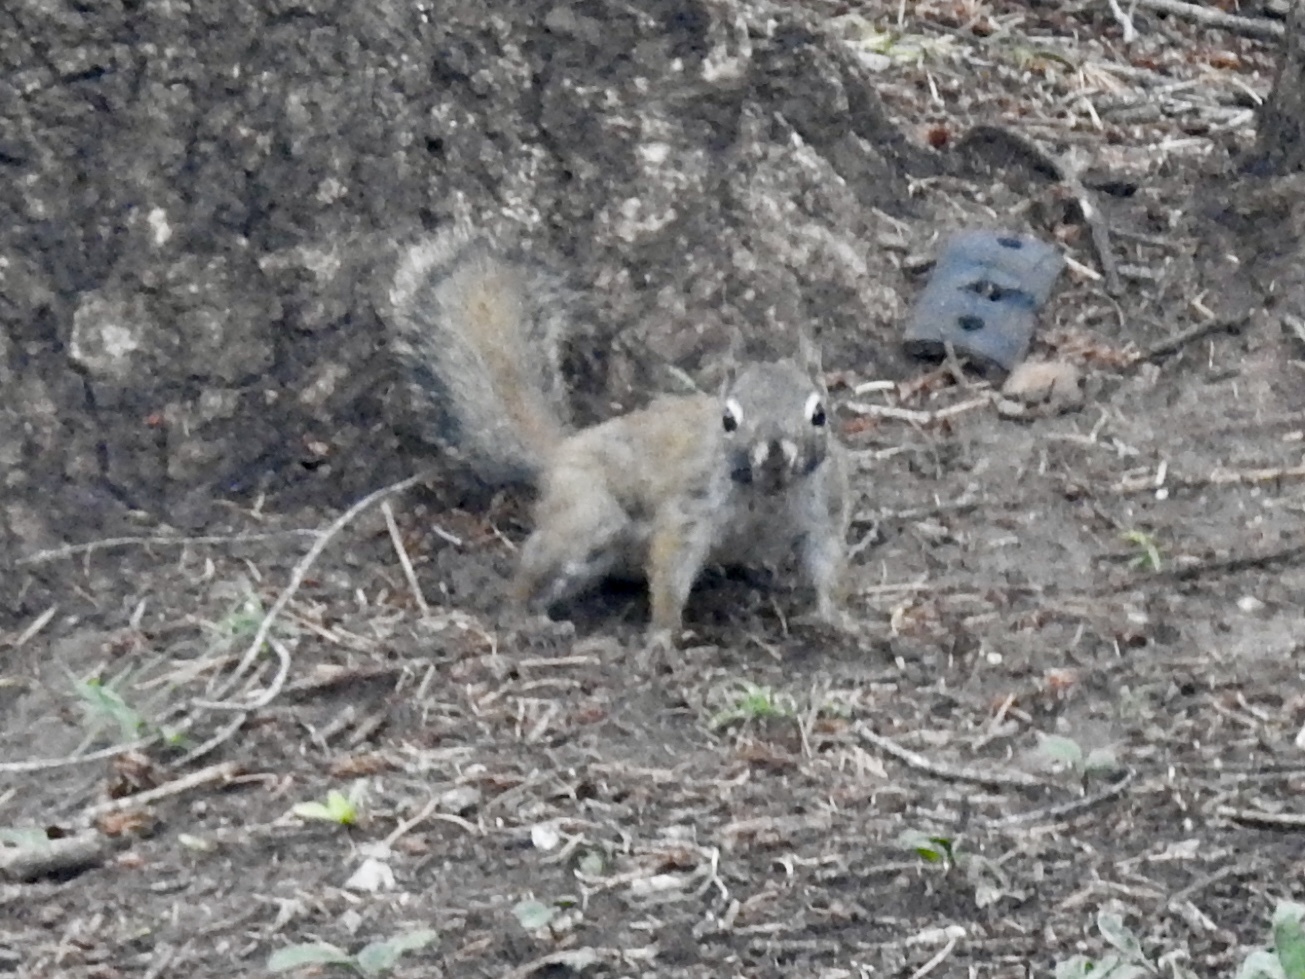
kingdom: Animalia
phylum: Chordata
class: Mammalia
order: Rodentia
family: Sciuridae
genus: Tamiasciurus
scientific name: Tamiasciurus hudsonicus
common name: Red squirrel
